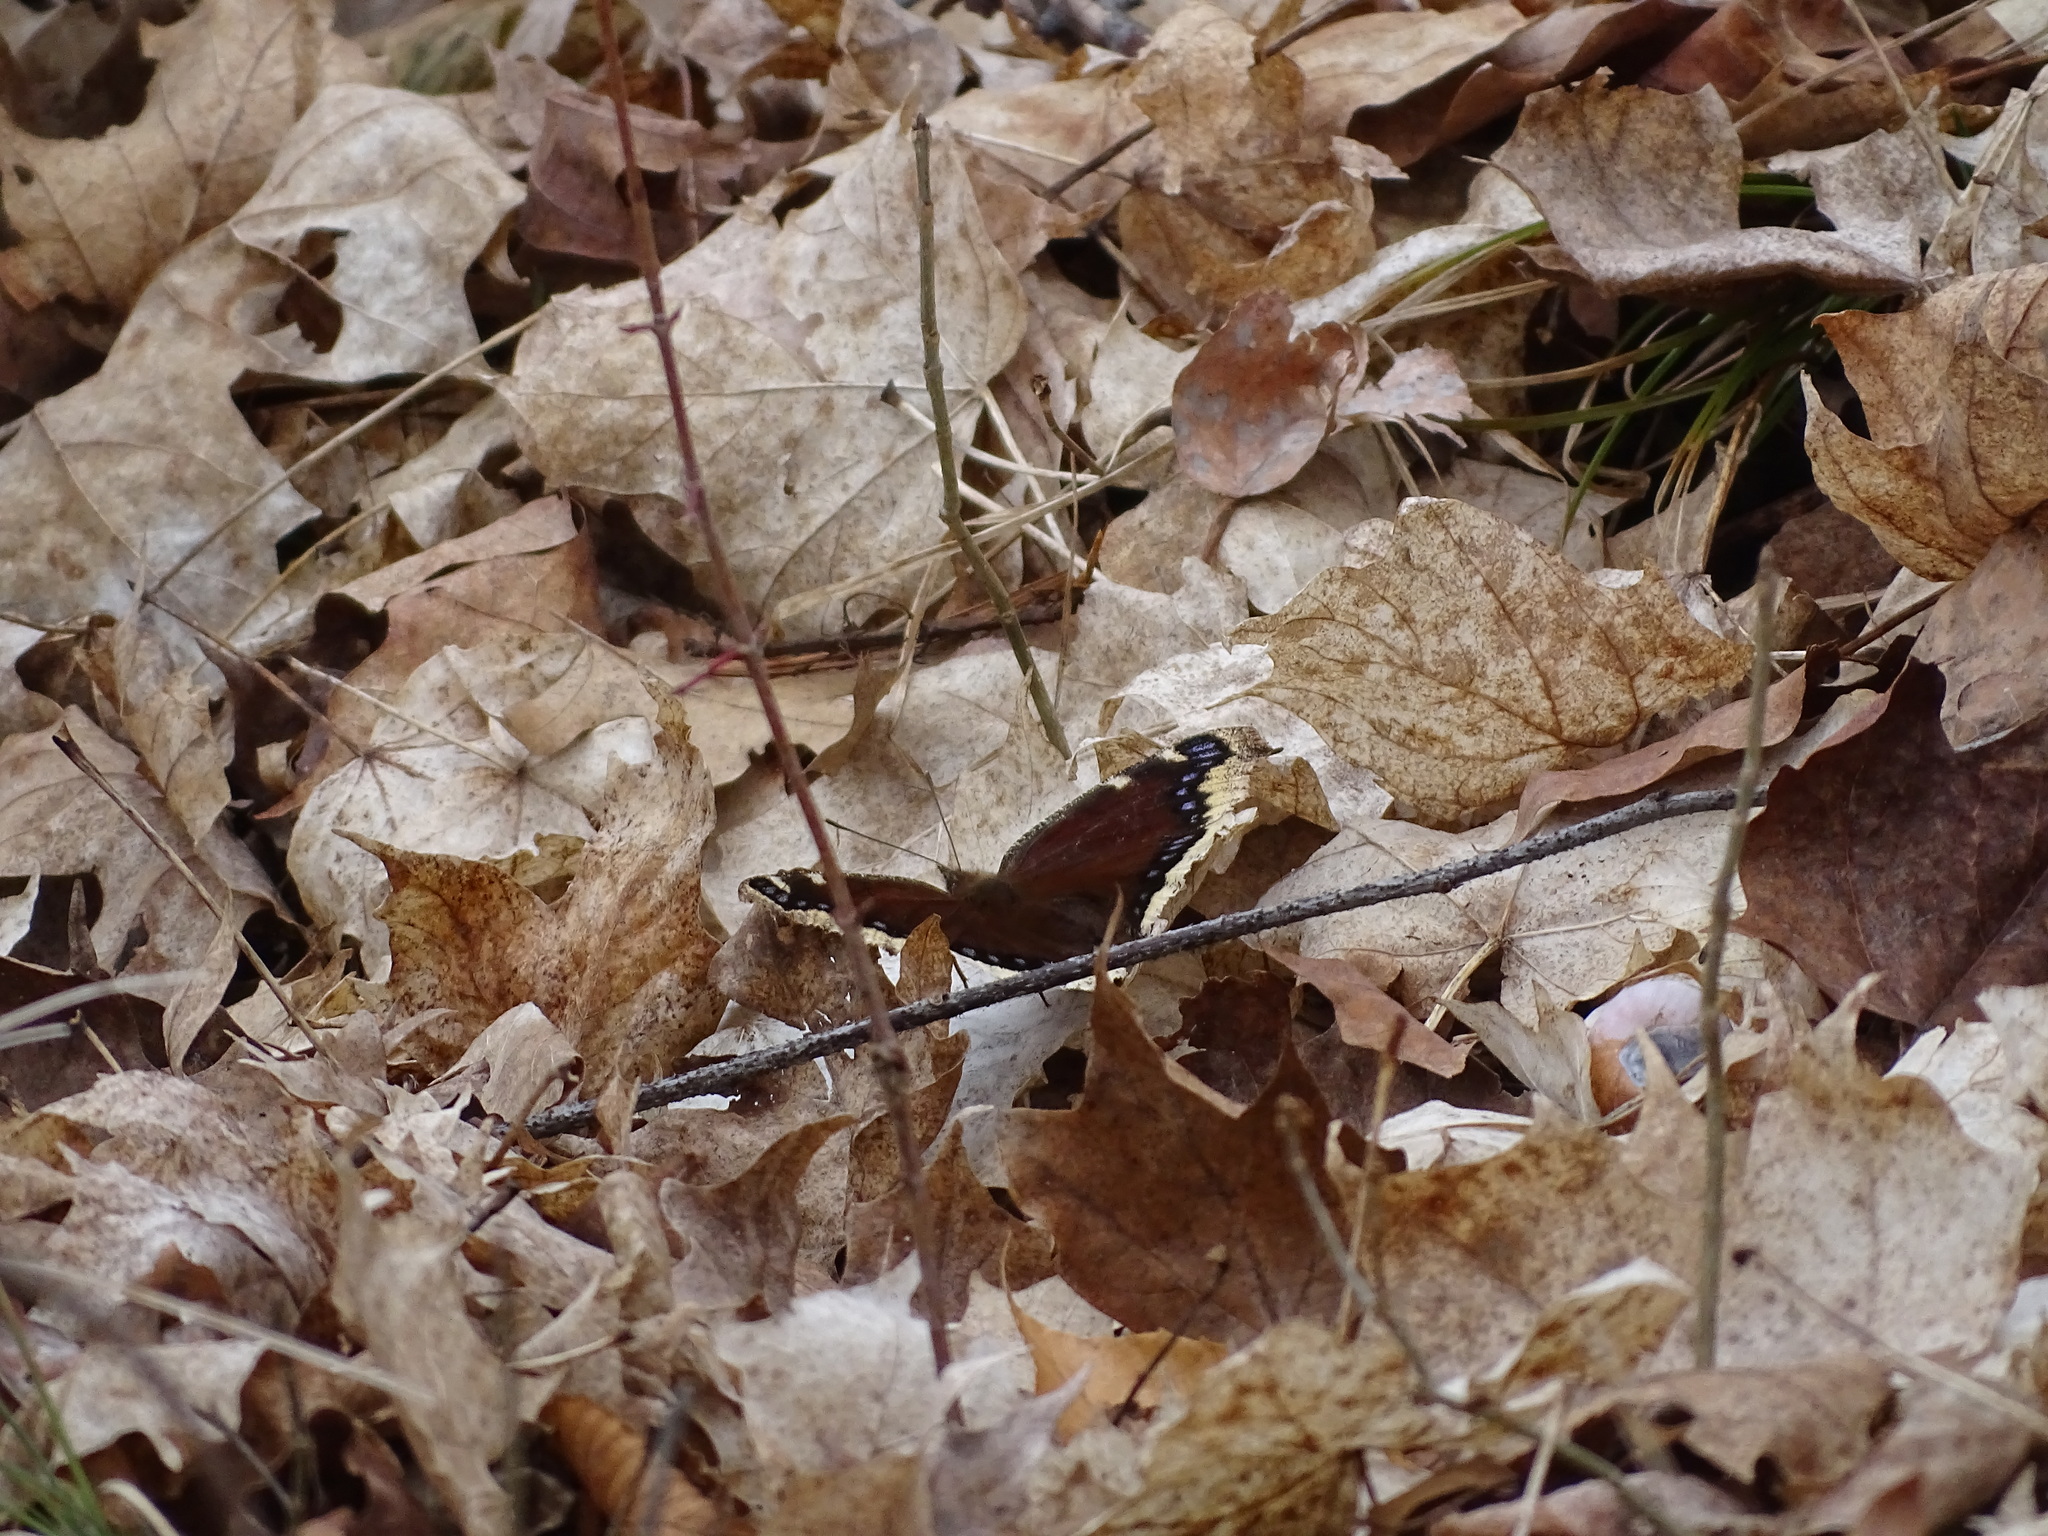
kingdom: Animalia
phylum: Arthropoda
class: Insecta
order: Lepidoptera
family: Nymphalidae
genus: Nymphalis
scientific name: Nymphalis antiopa
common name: Camberwell beauty
